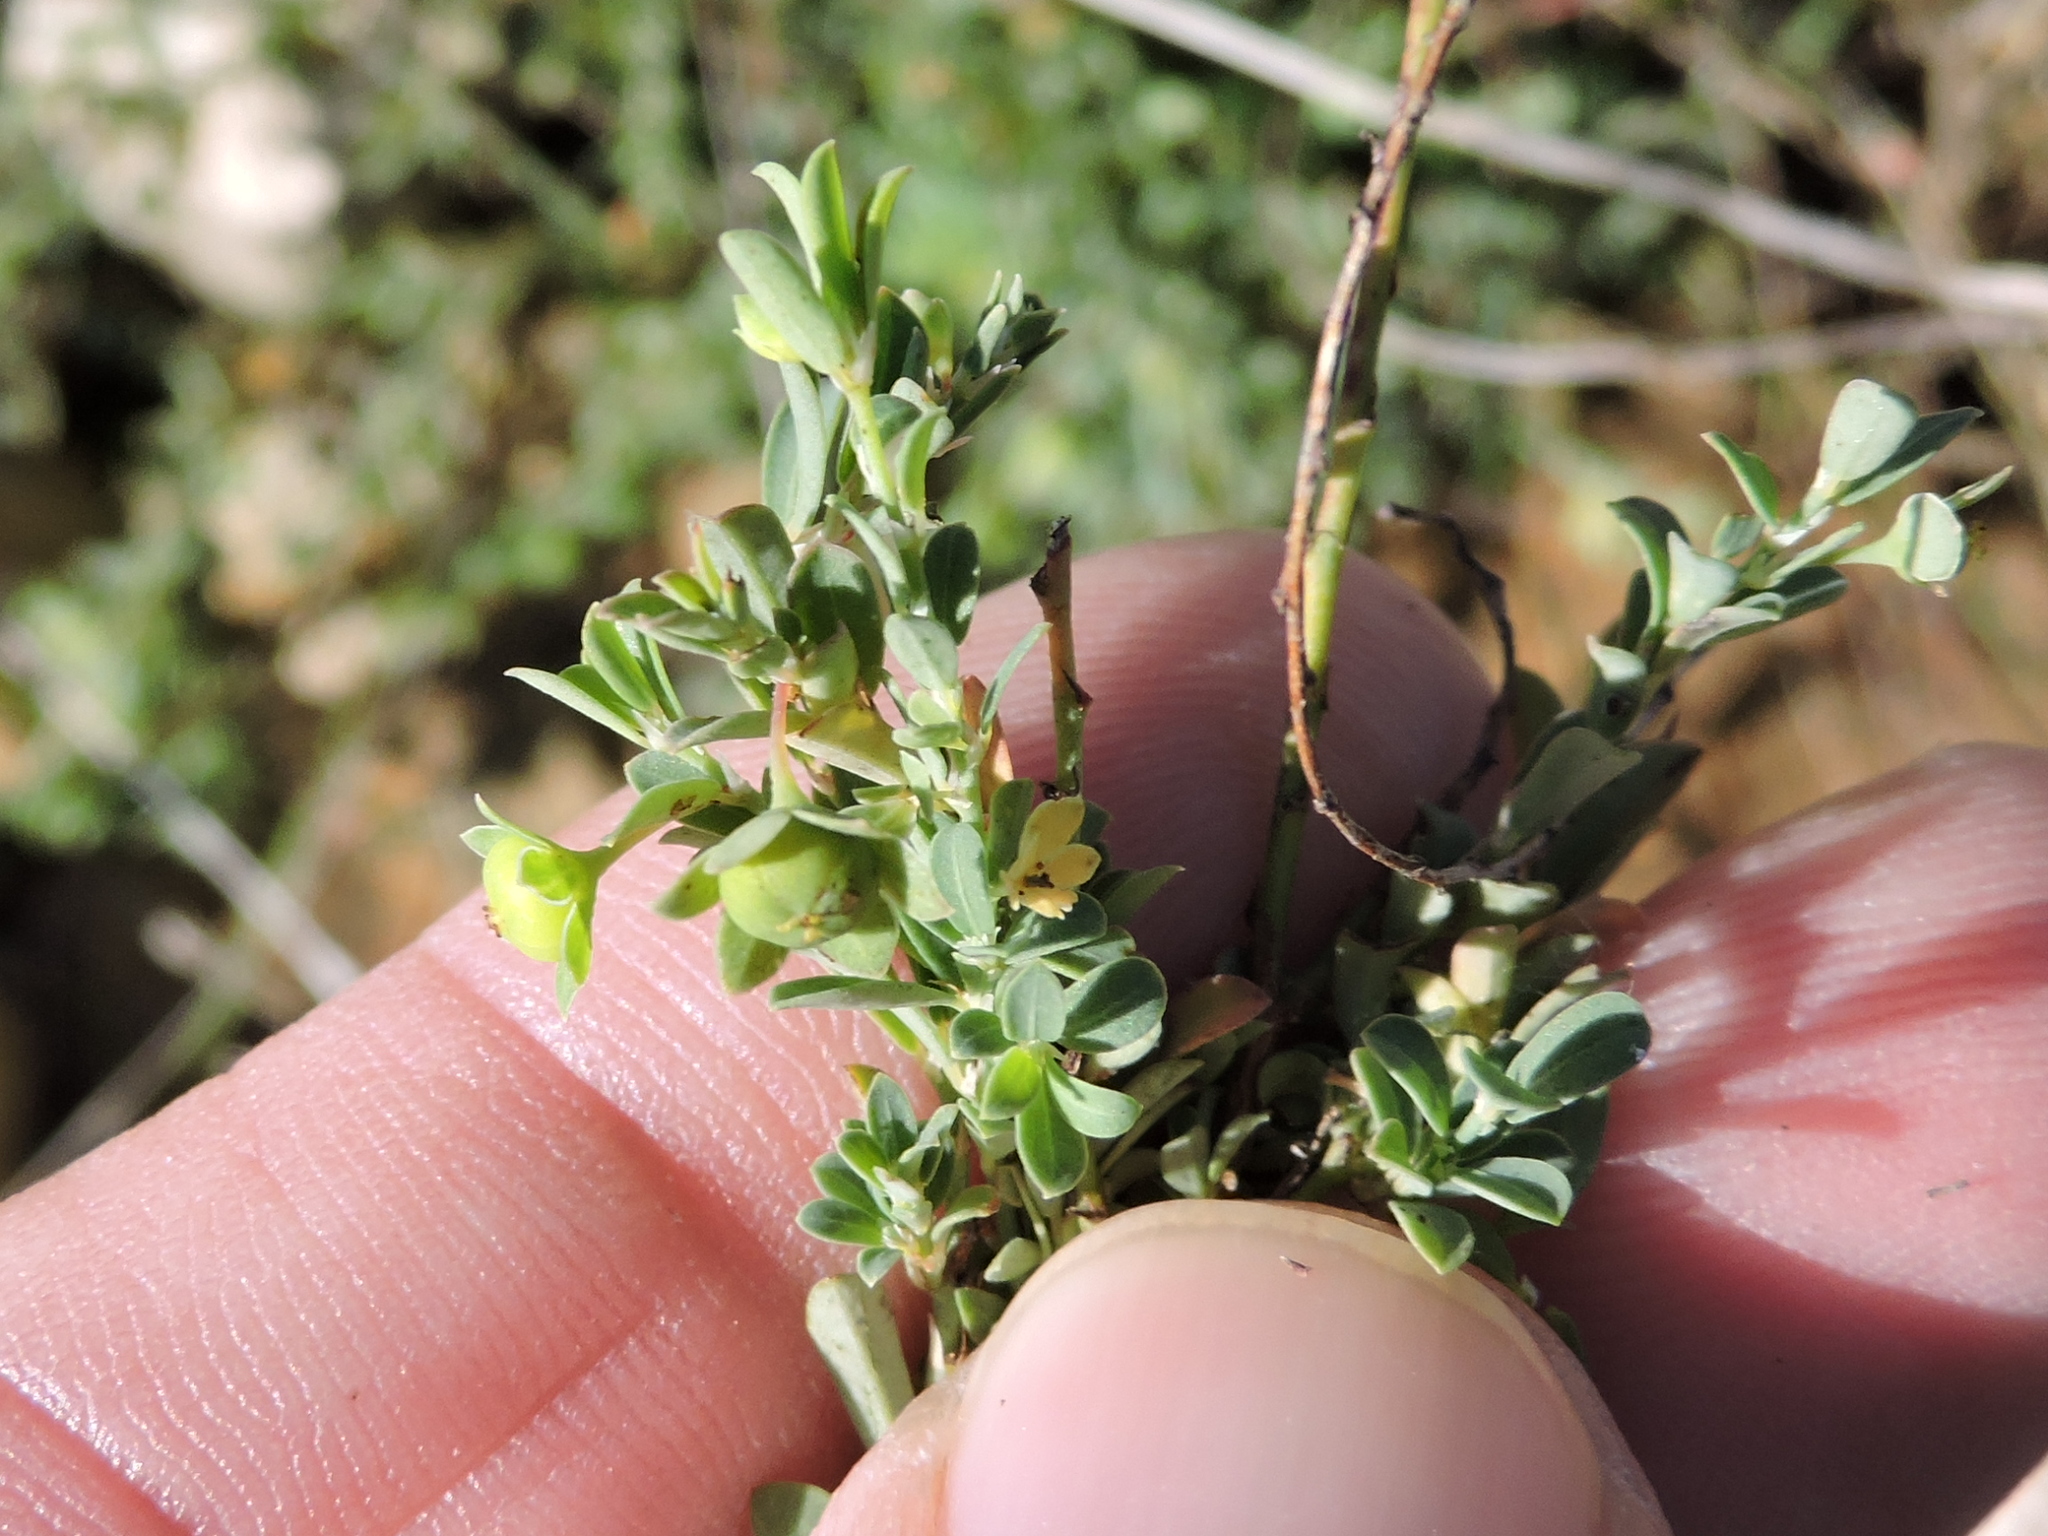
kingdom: Plantae
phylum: Tracheophyta
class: Magnoliopsida
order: Malpighiales
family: Phyllanthaceae
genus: Phyllanthus
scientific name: Phyllanthus polygonoides
